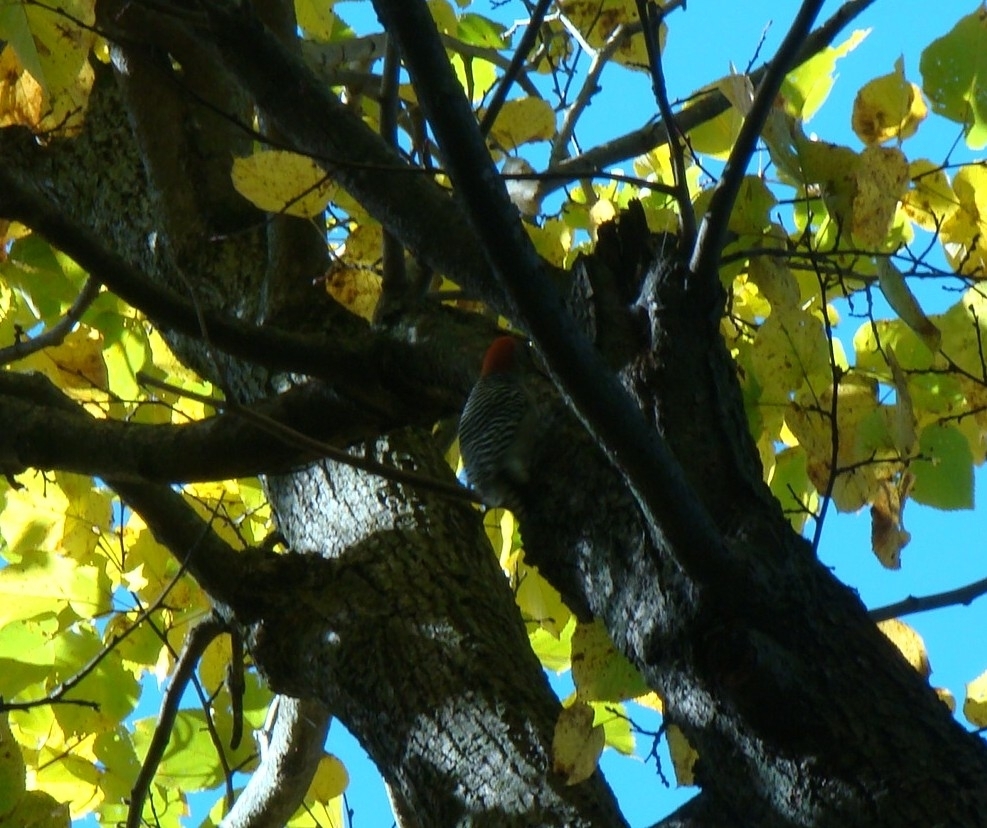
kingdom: Animalia
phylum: Chordata
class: Aves
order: Piciformes
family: Picidae
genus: Melanerpes
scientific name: Melanerpes carolinus
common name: Red-bellied woodpecker
